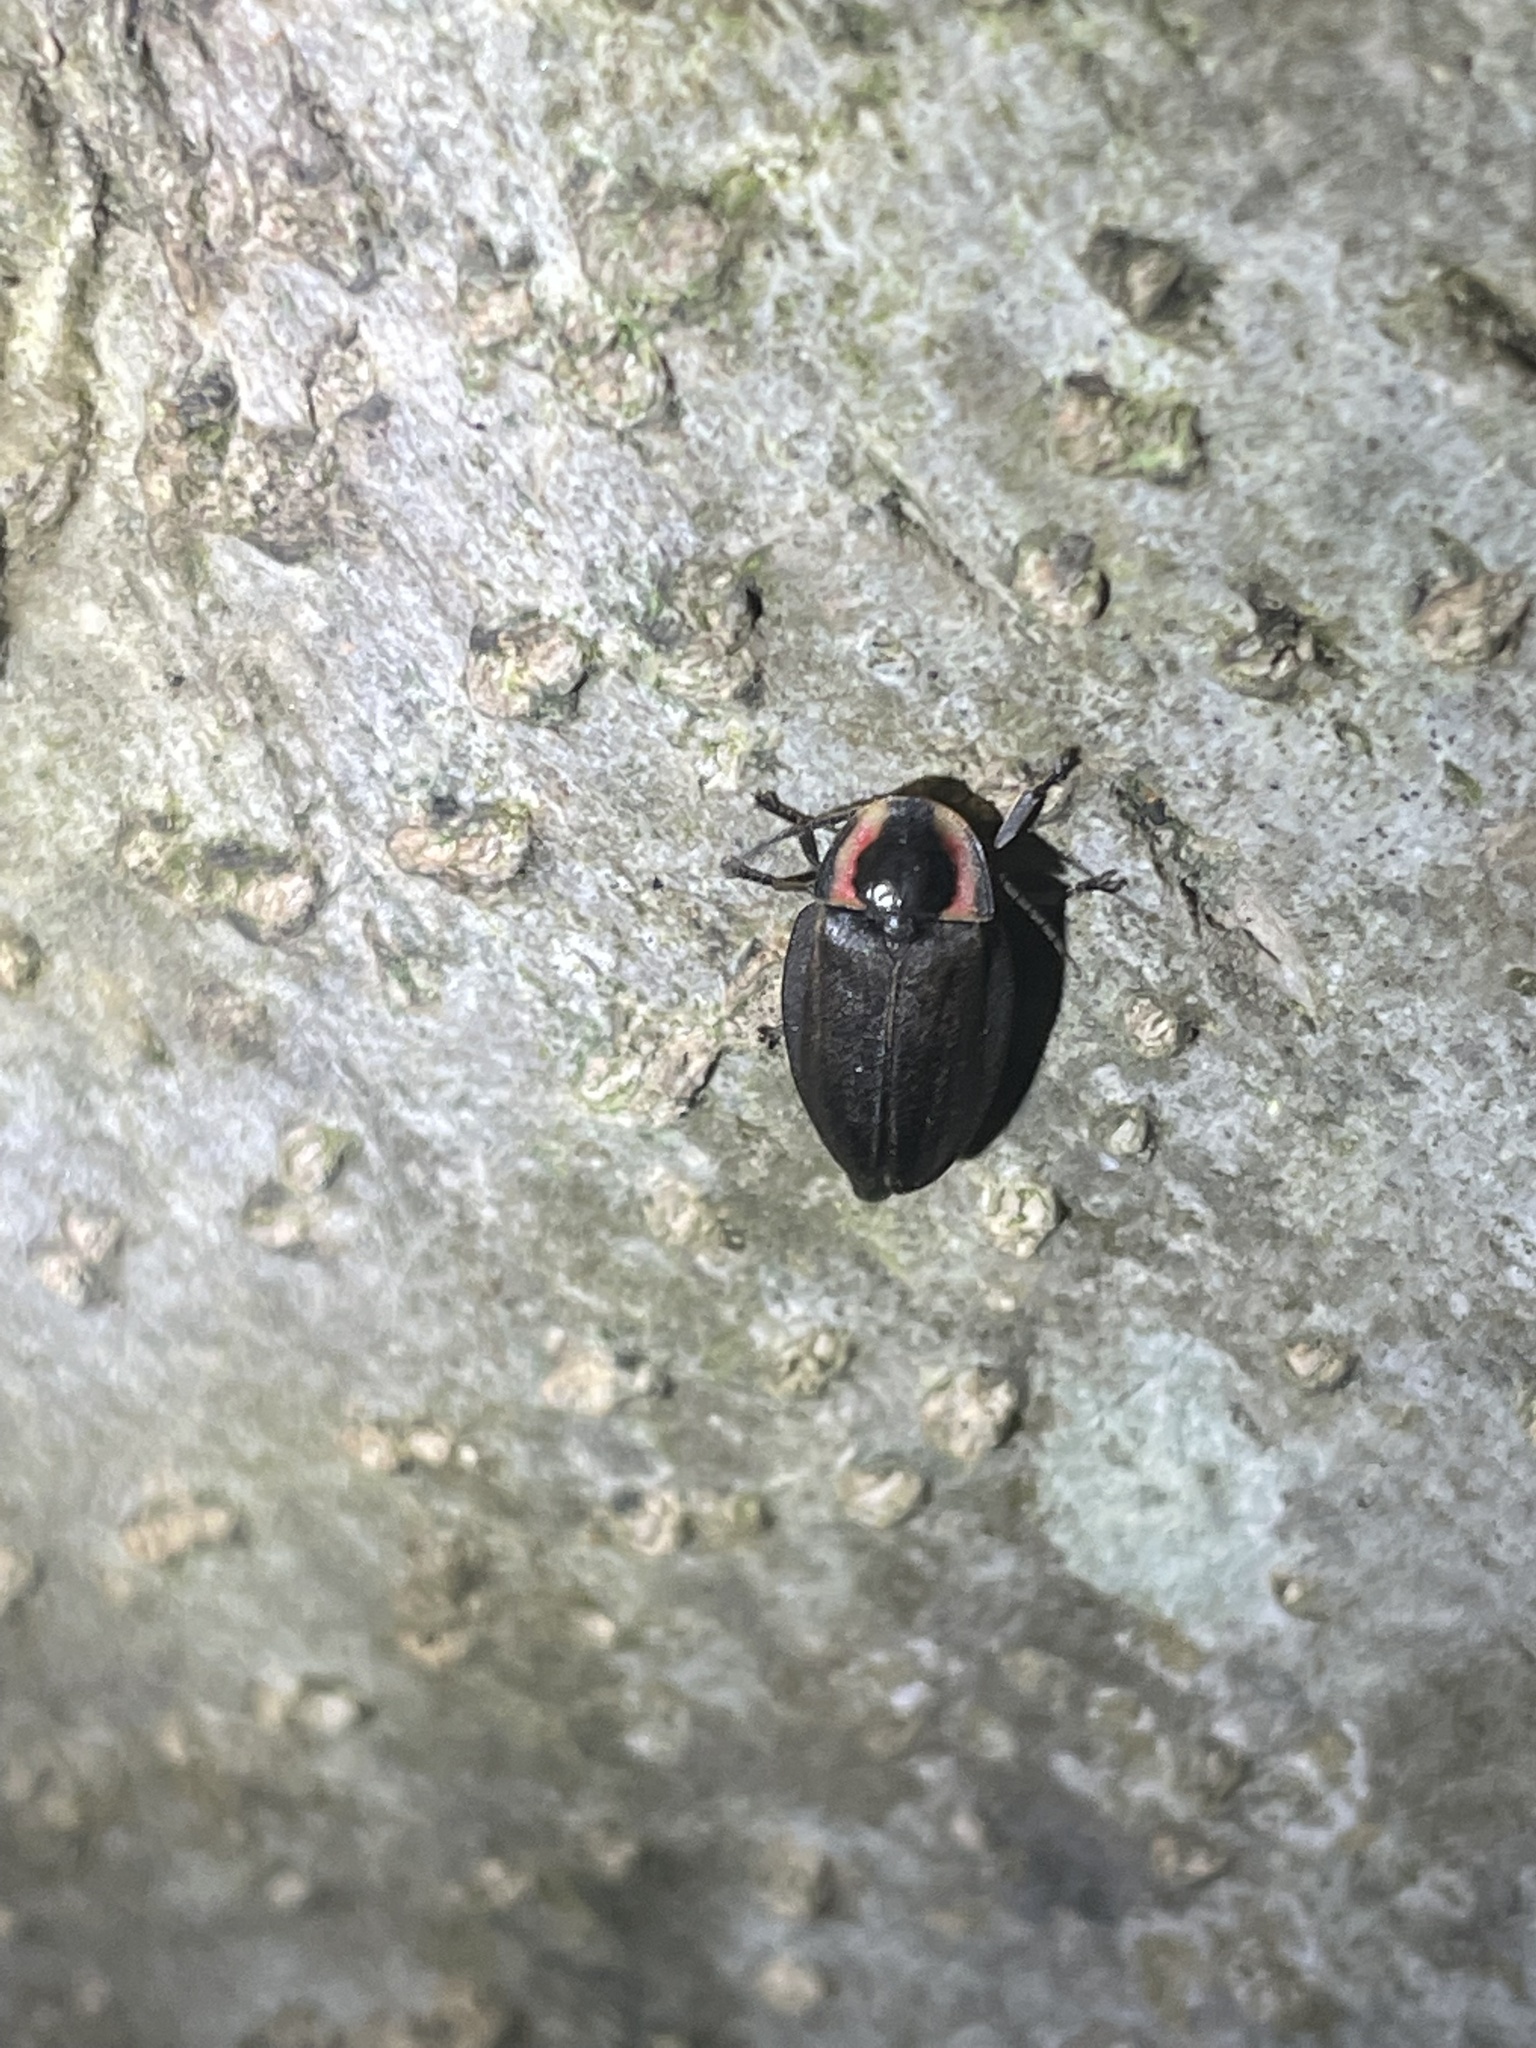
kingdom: Animalia
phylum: Arthropoda
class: Insecta
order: Coleoptera
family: Lampyridae
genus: Photinus
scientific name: Photinus corrusca
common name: Winter firefly
